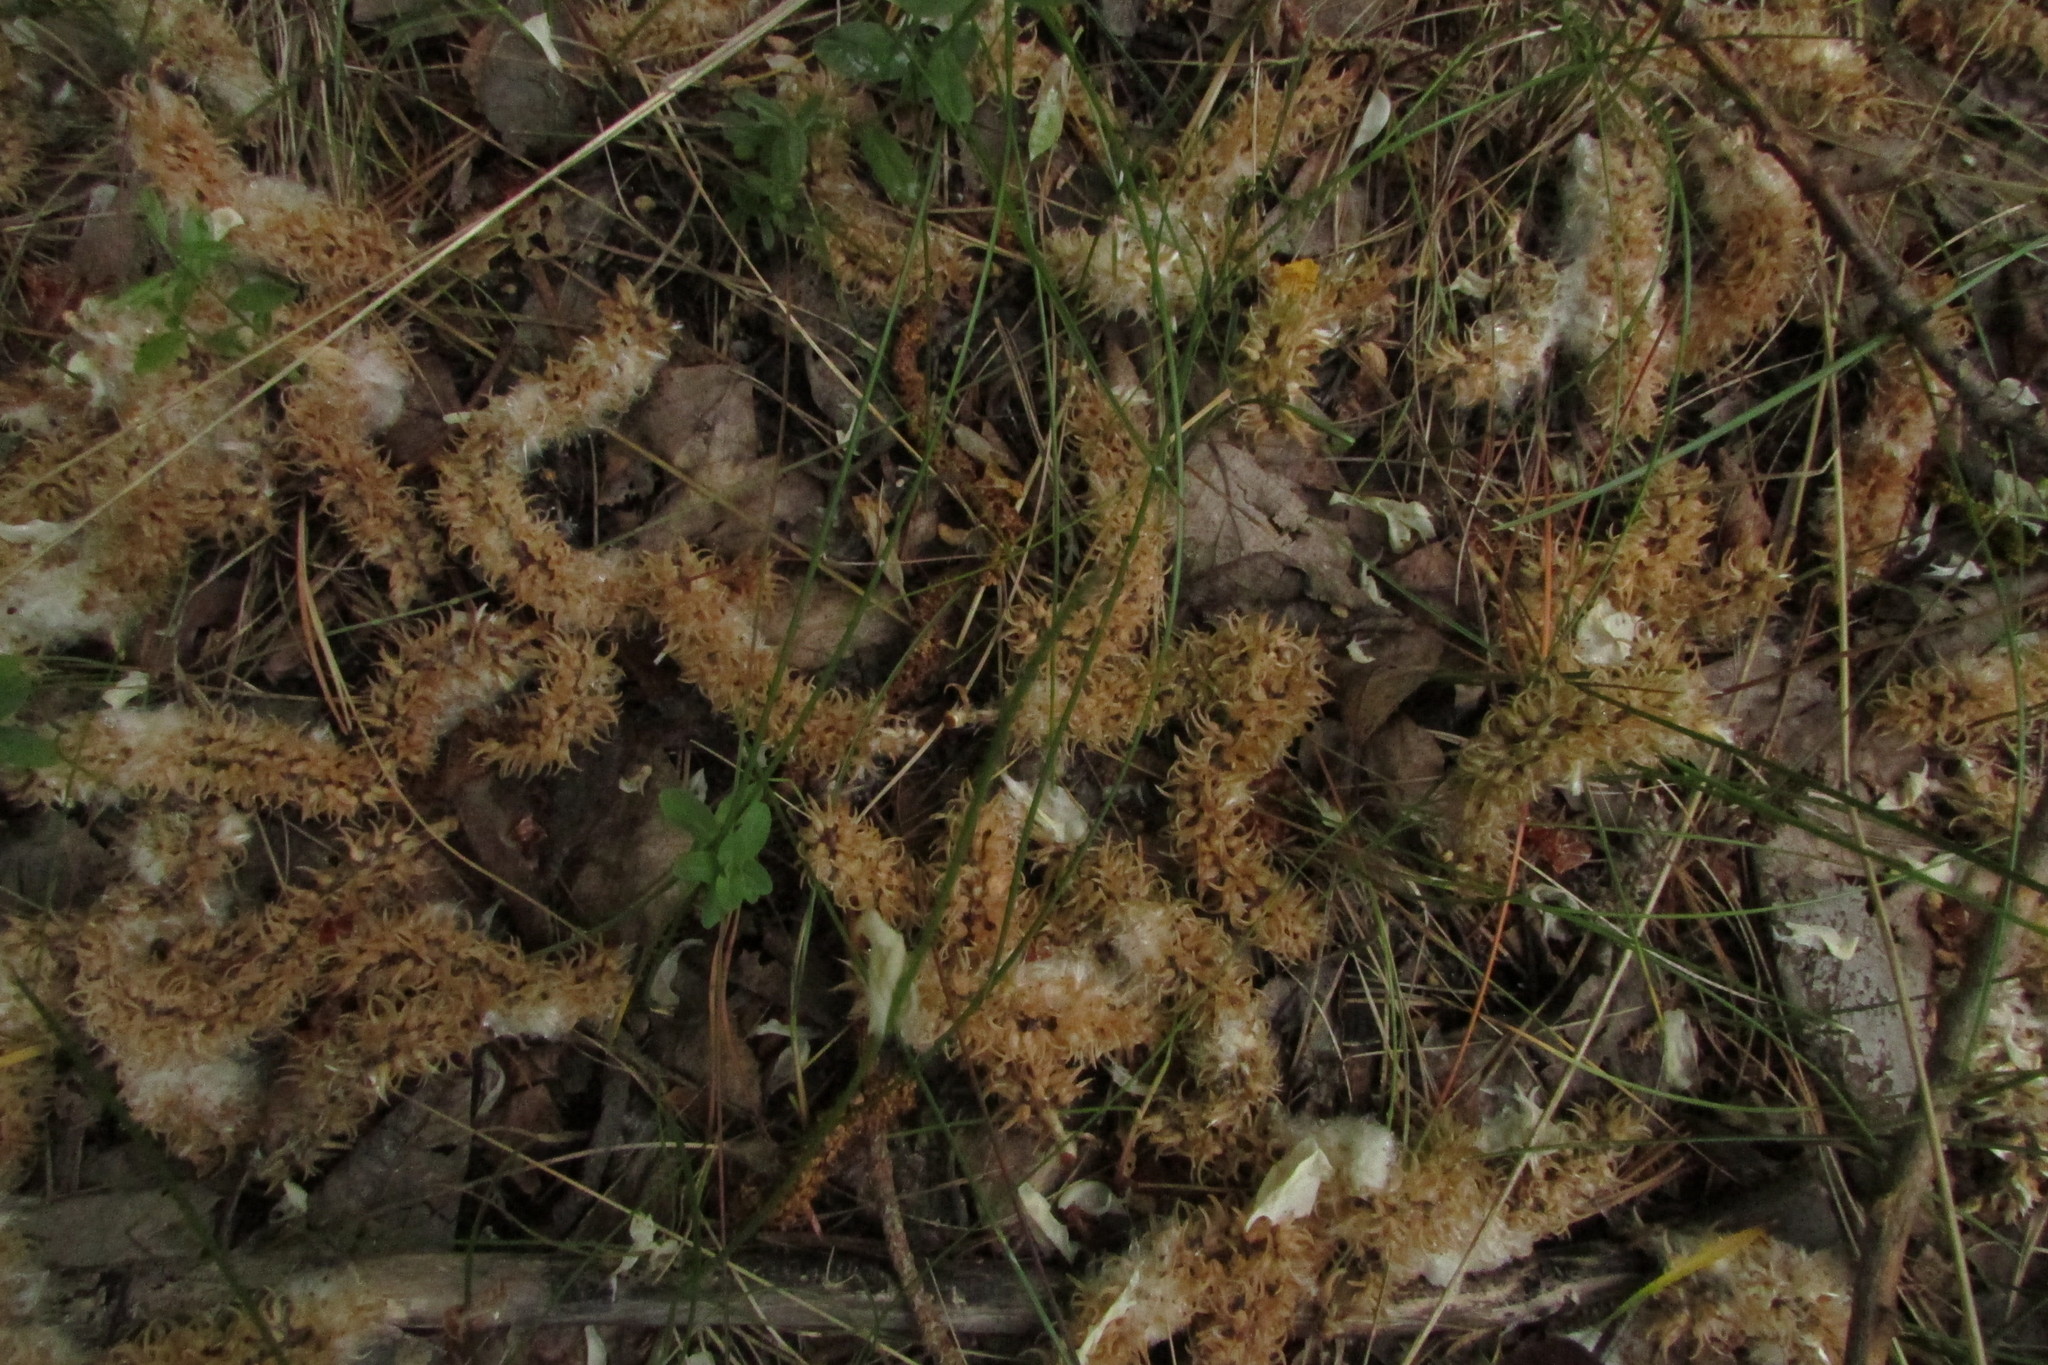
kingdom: Plantae
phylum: Tracheophyta
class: Magnoliopsida
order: Malpighiales
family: Salicaceae
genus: Salix
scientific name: Salix caprea
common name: Goat willow
